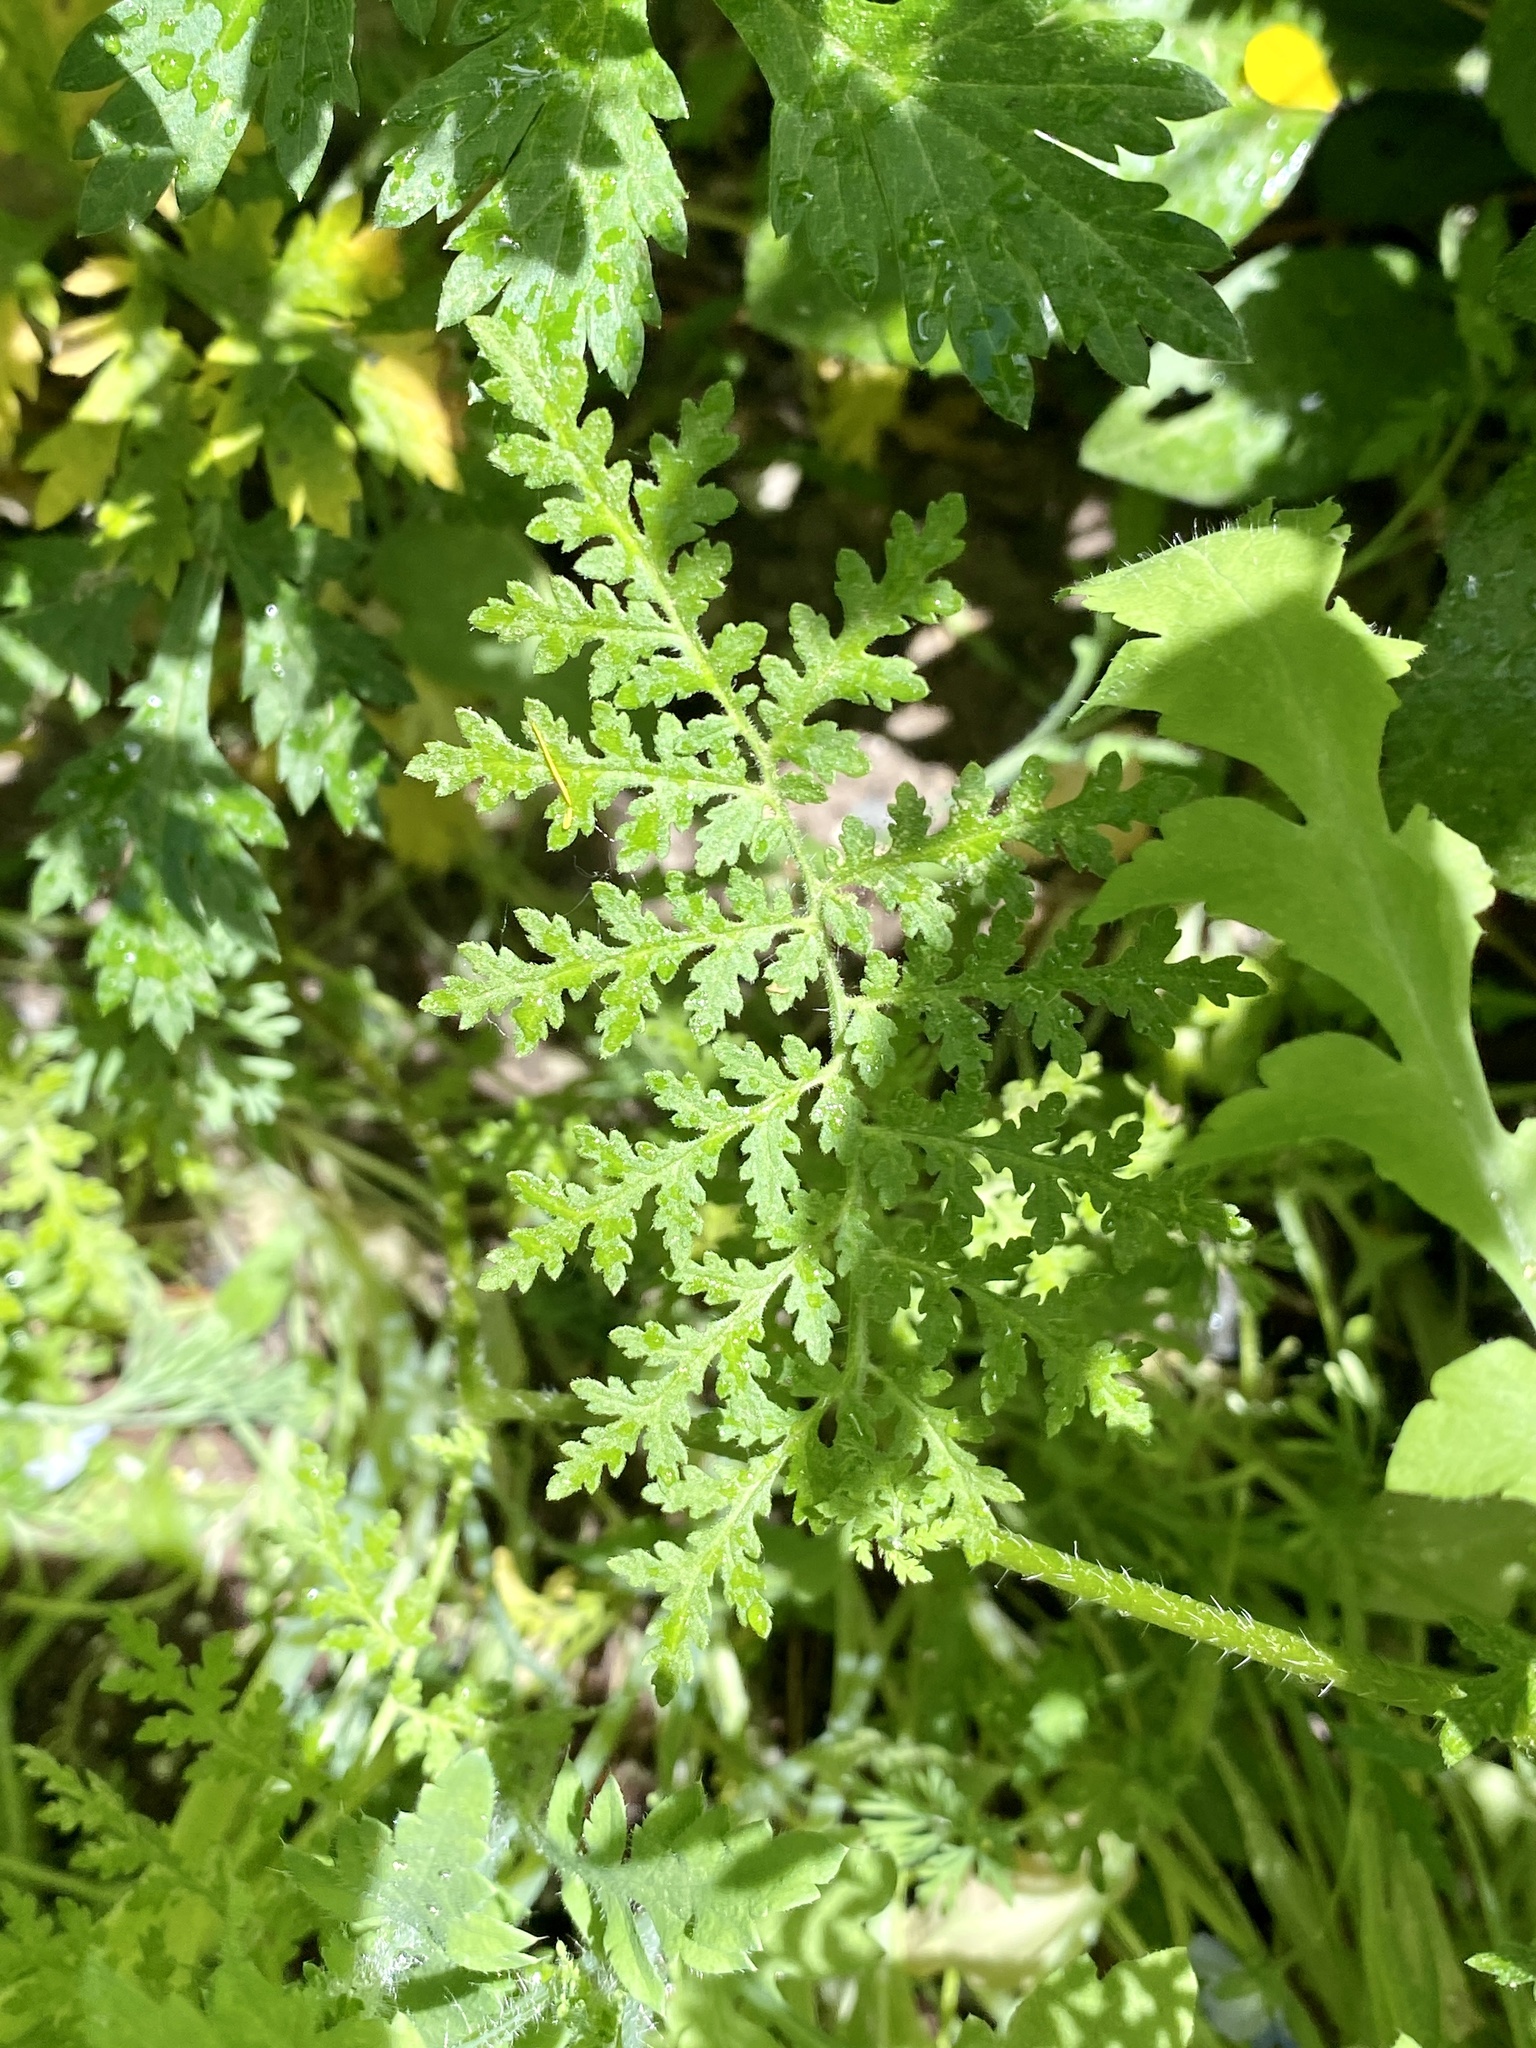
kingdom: Plantae
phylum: Tracheophyta
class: Magnoliopsida
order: Boraginales
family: Hydrophyllaceae
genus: Phacelia
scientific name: Phacelia tanacetifolia
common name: Phacelia
